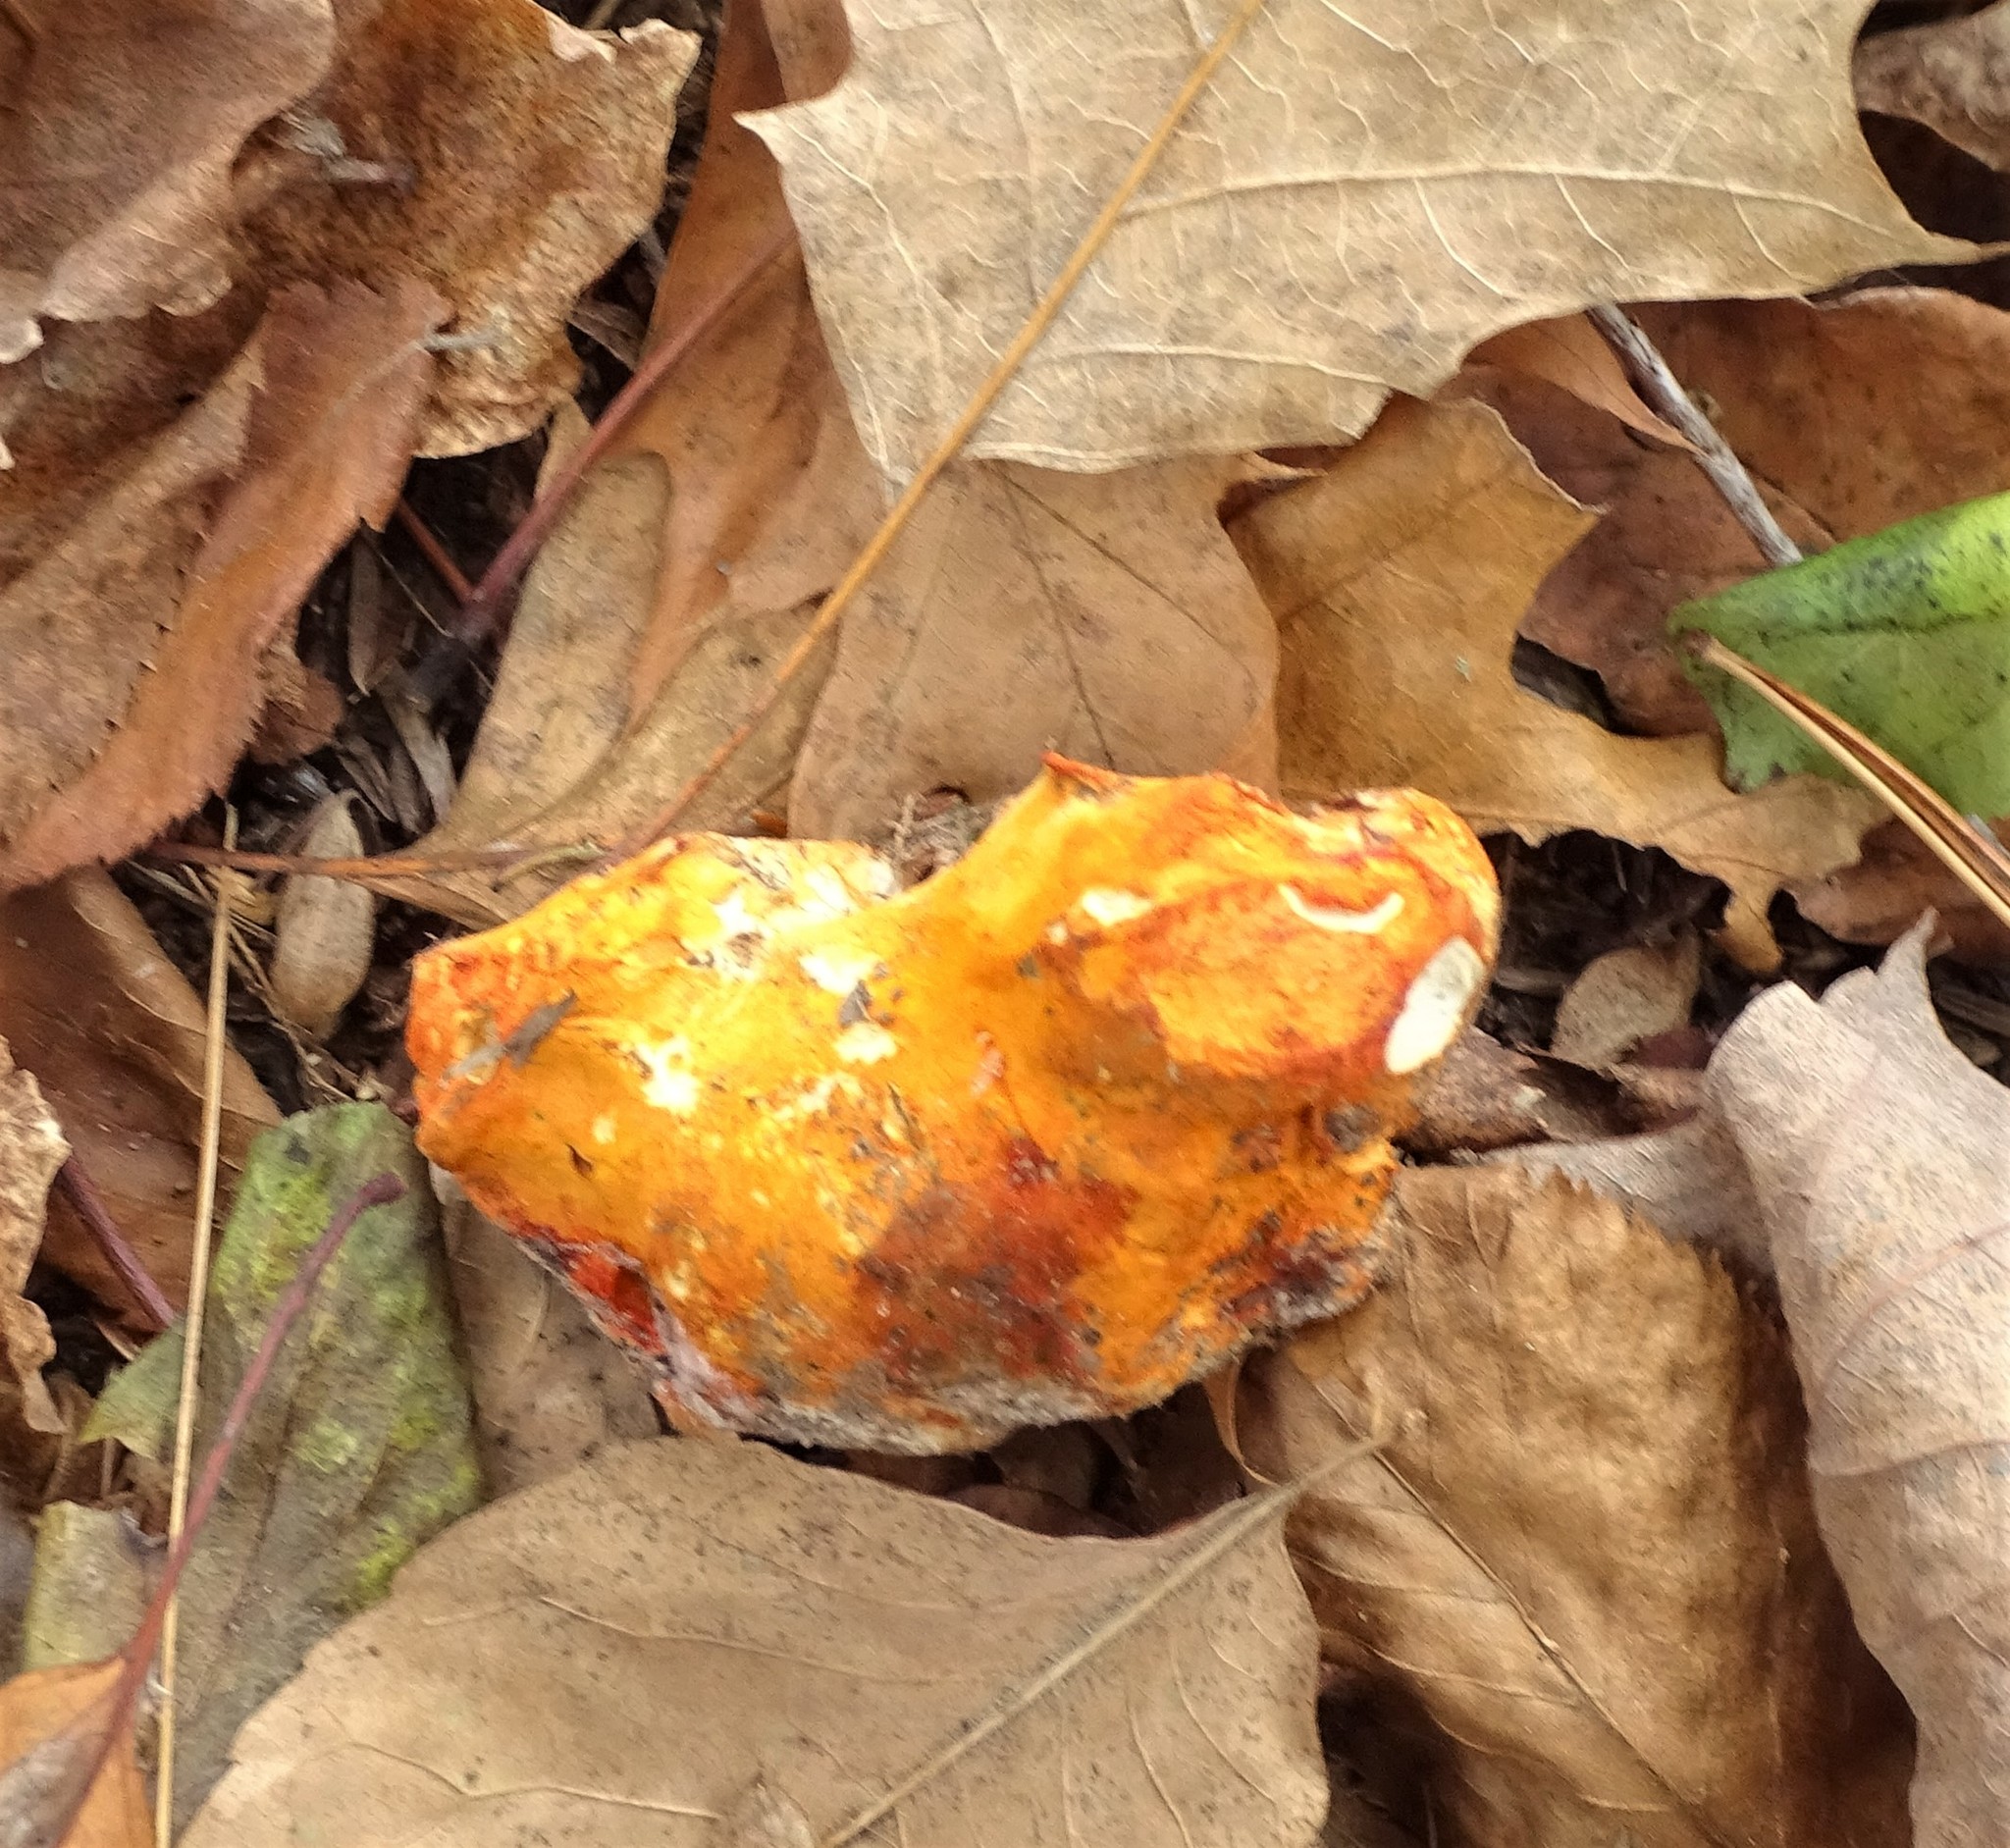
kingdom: Fungi
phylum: Ascomycota
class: Sordariomycetes
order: Hypocreales
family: Hypocreaceae
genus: Hypomyces
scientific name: Hypomyces lactifluorum
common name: Lobster mushroom
